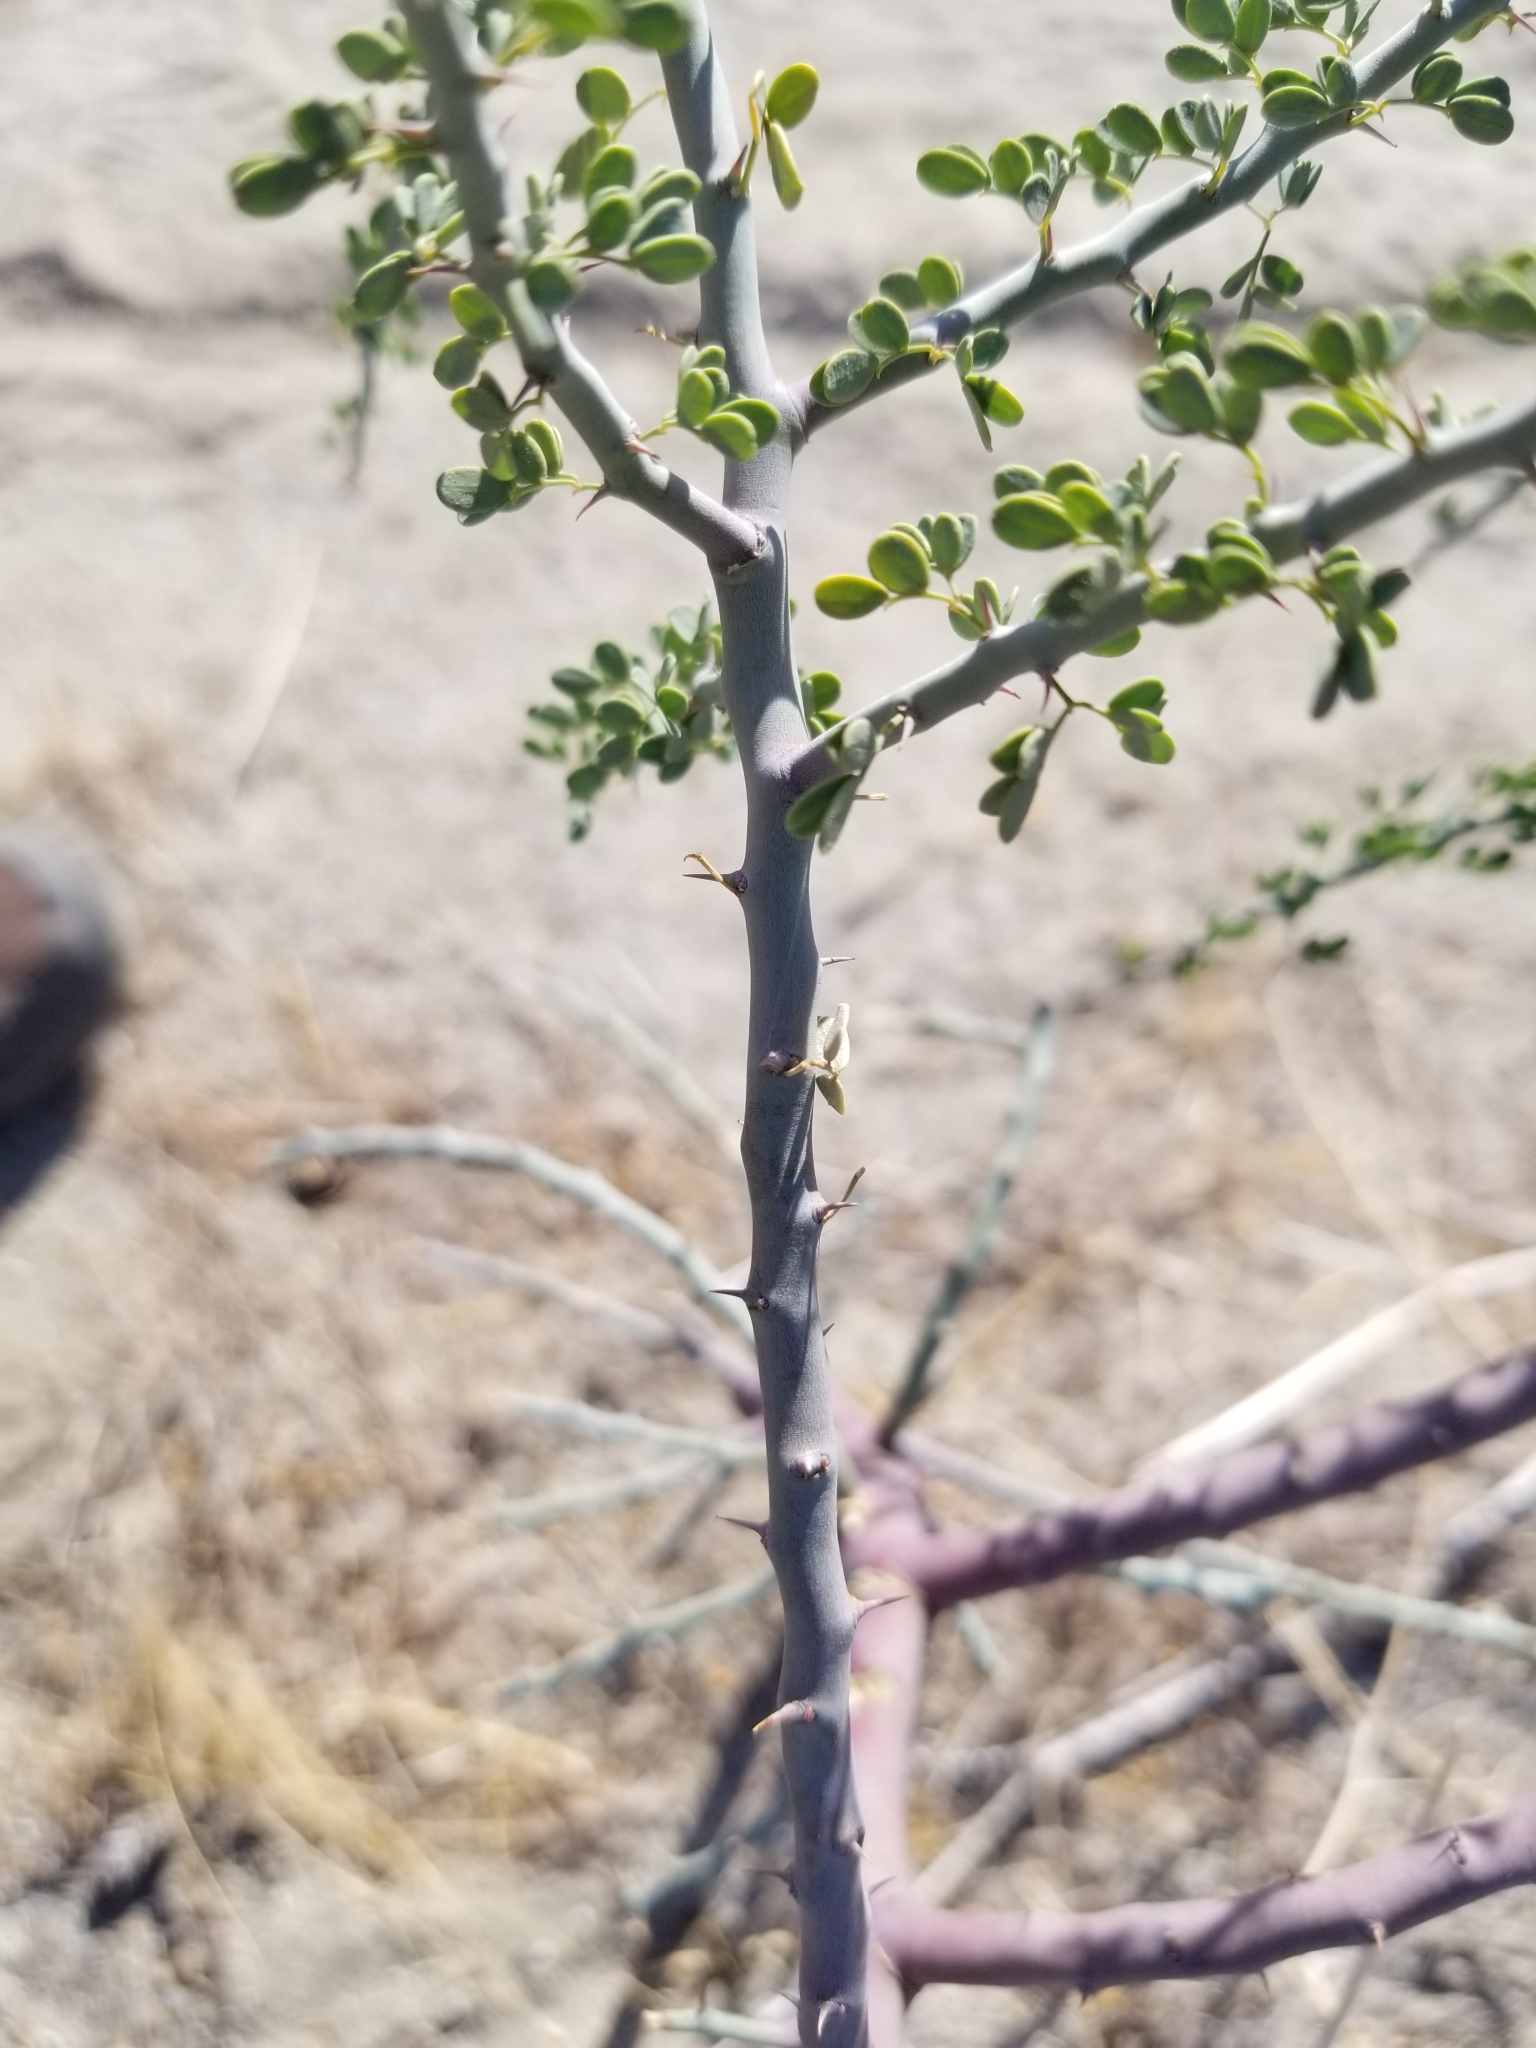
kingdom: Plantae
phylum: Tracheophyta
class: Magnoliopsida
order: Fabales
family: Fabaceae
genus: Senegalia
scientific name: Senegalia greggii
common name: Texas-mimosa
